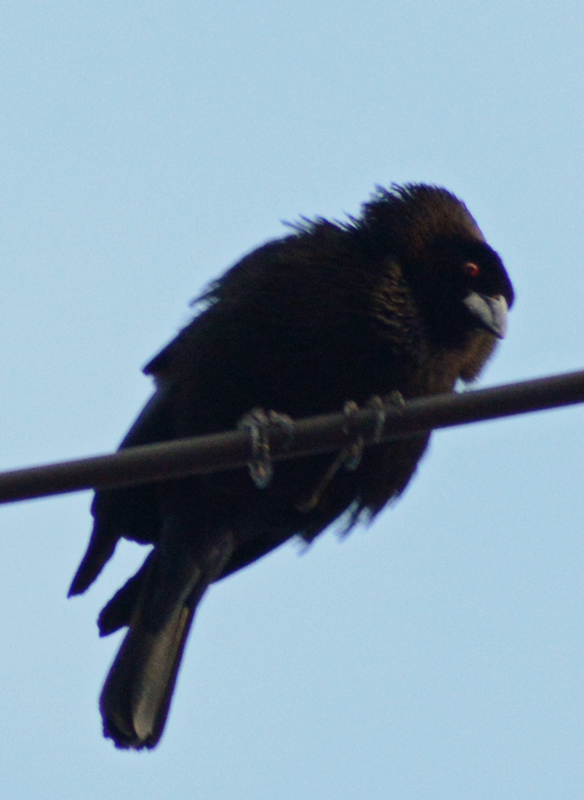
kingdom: Animalia
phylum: Chordata
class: Aves
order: Passeriformes
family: Icteridae
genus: Molothrus
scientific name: Molothrus aeneus
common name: Bronzed cowbird
